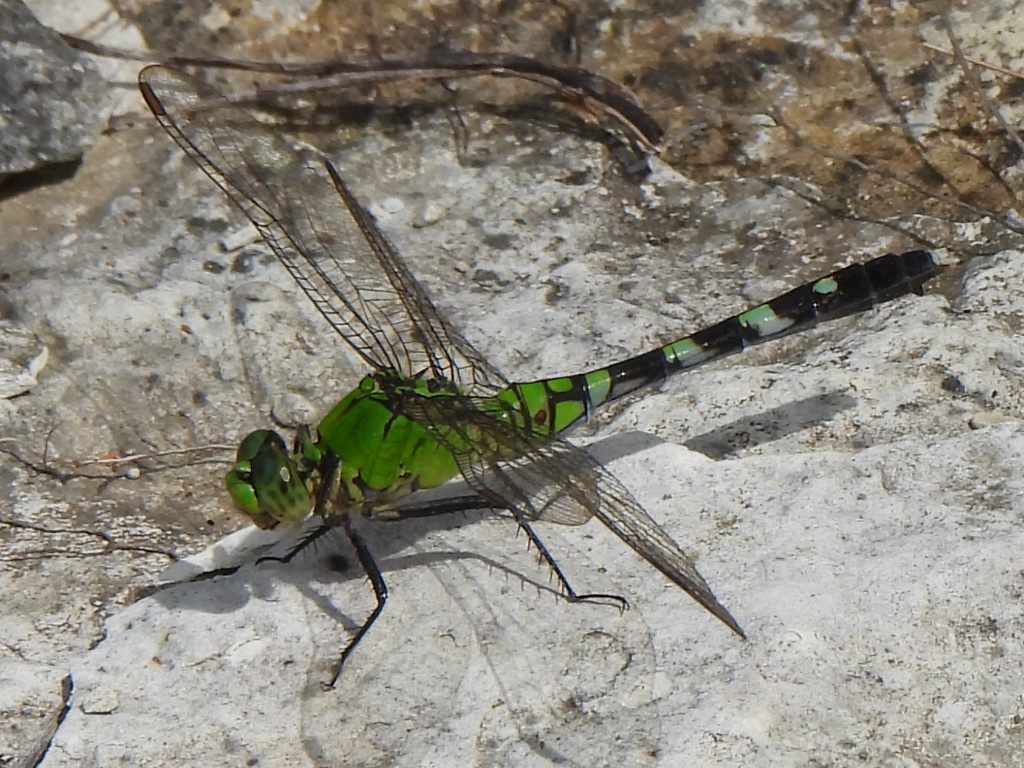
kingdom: Animalia
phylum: Arthropoda
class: Insecta
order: Odonata
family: Libellulidae
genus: Erythemis
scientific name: Erythemis simplicicollis
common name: Eastern pondhawk
